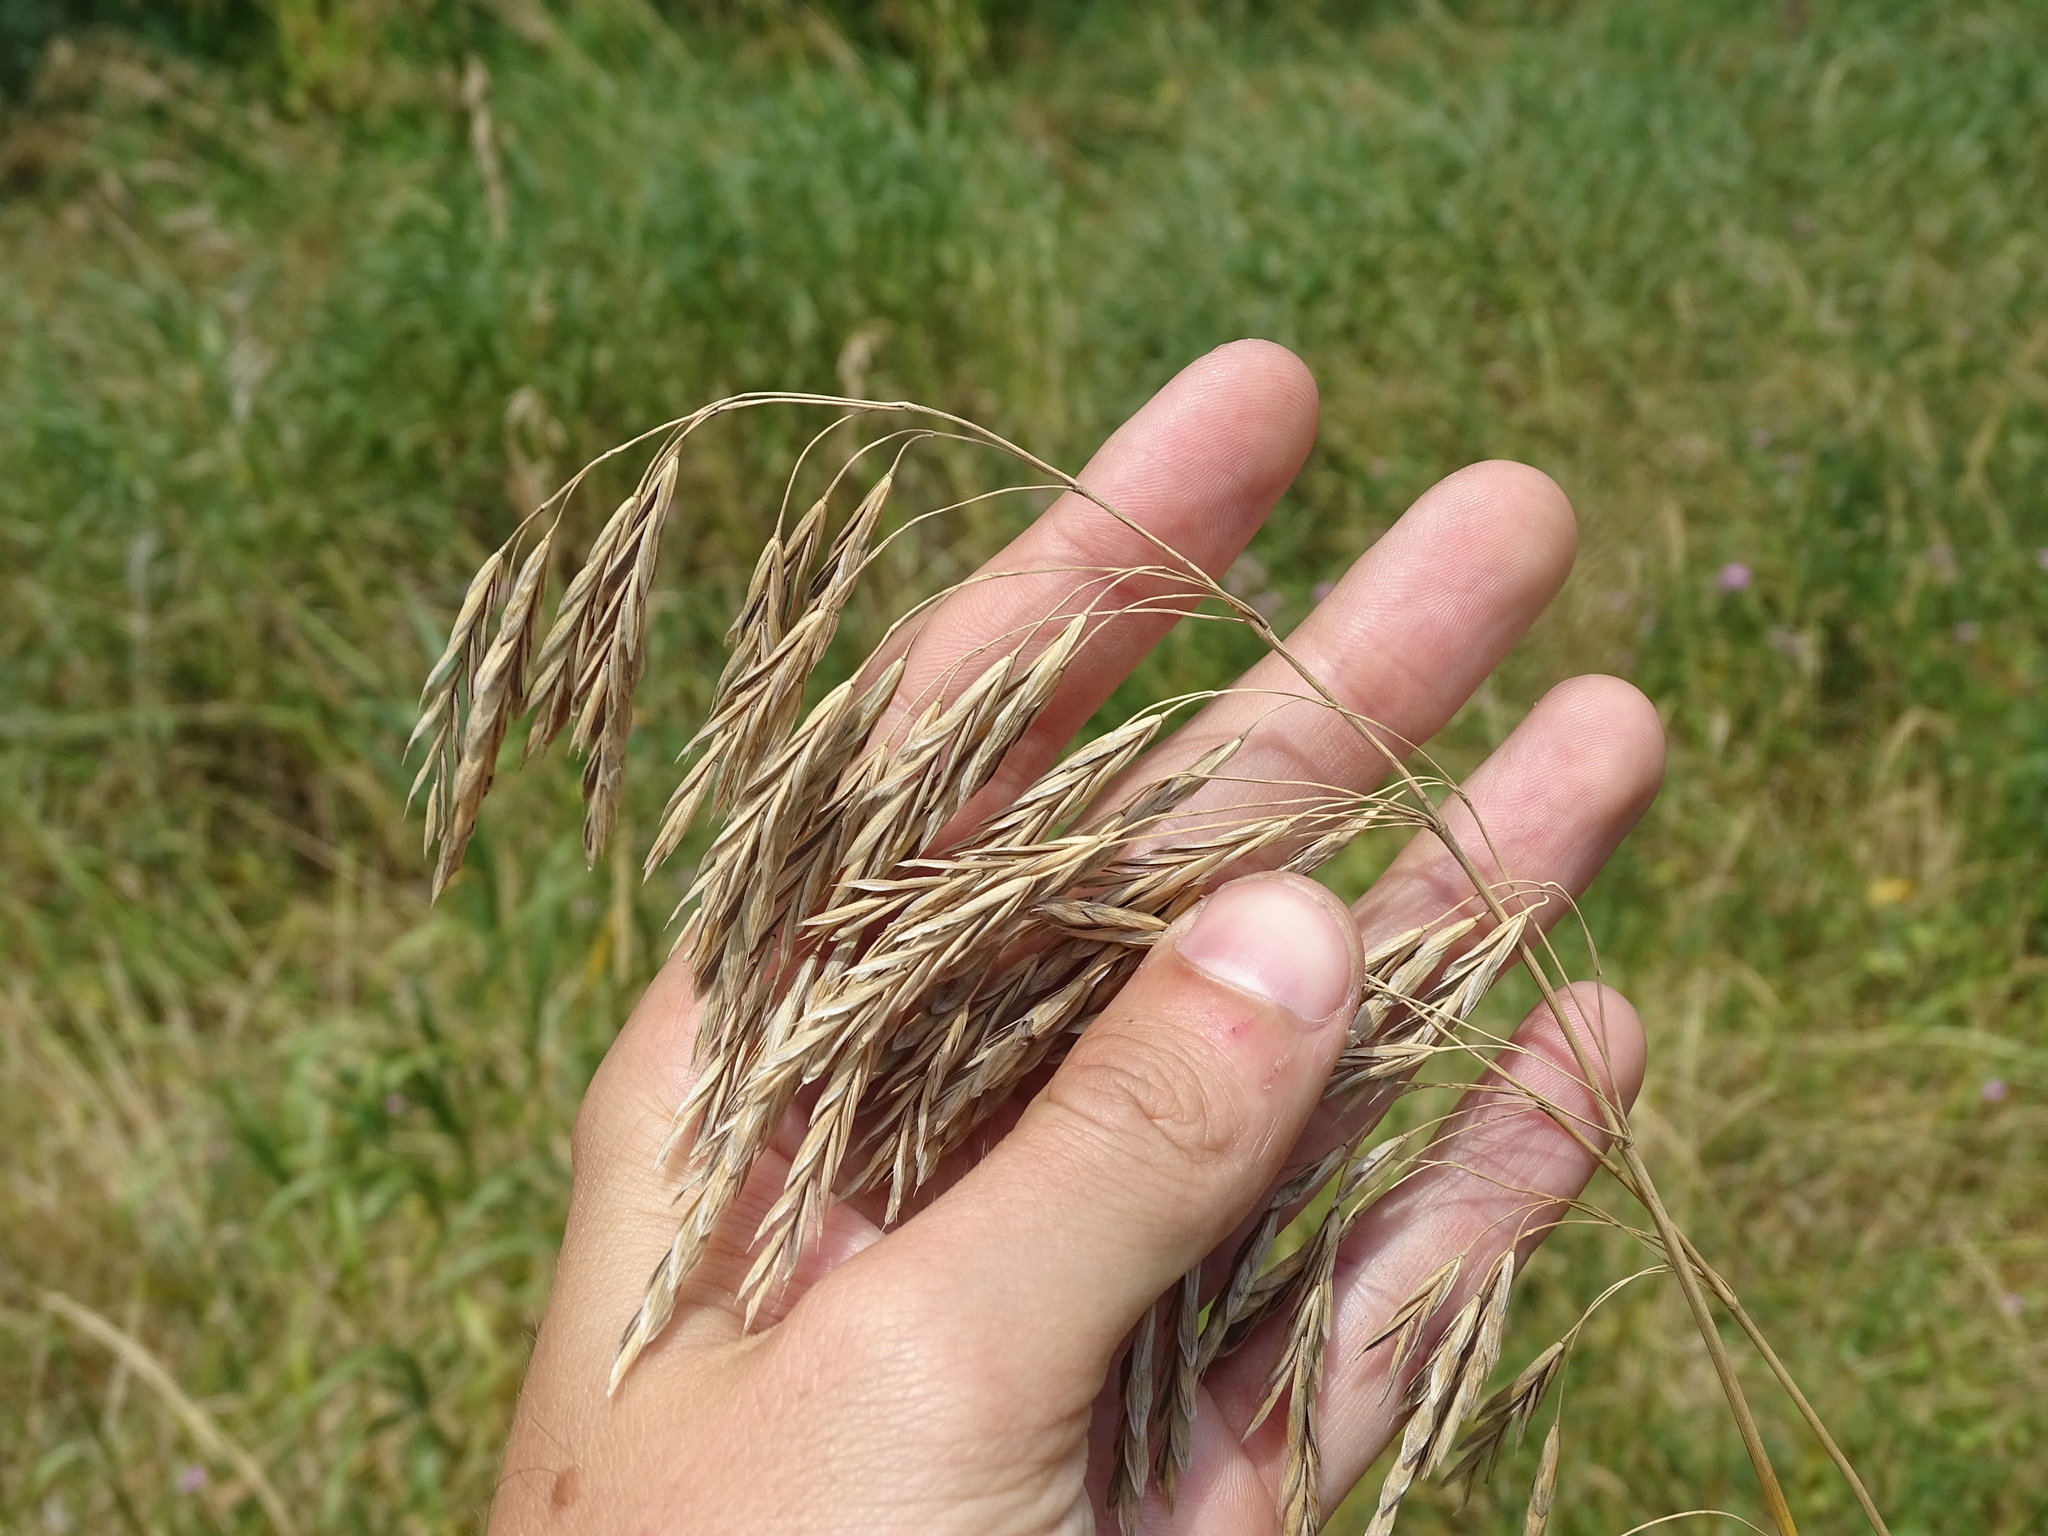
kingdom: Plantae
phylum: Tracheophyta
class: Liliopsida
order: Poales
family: Poaceae
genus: Bromus
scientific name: Bromus inermis
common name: Smooth brome
